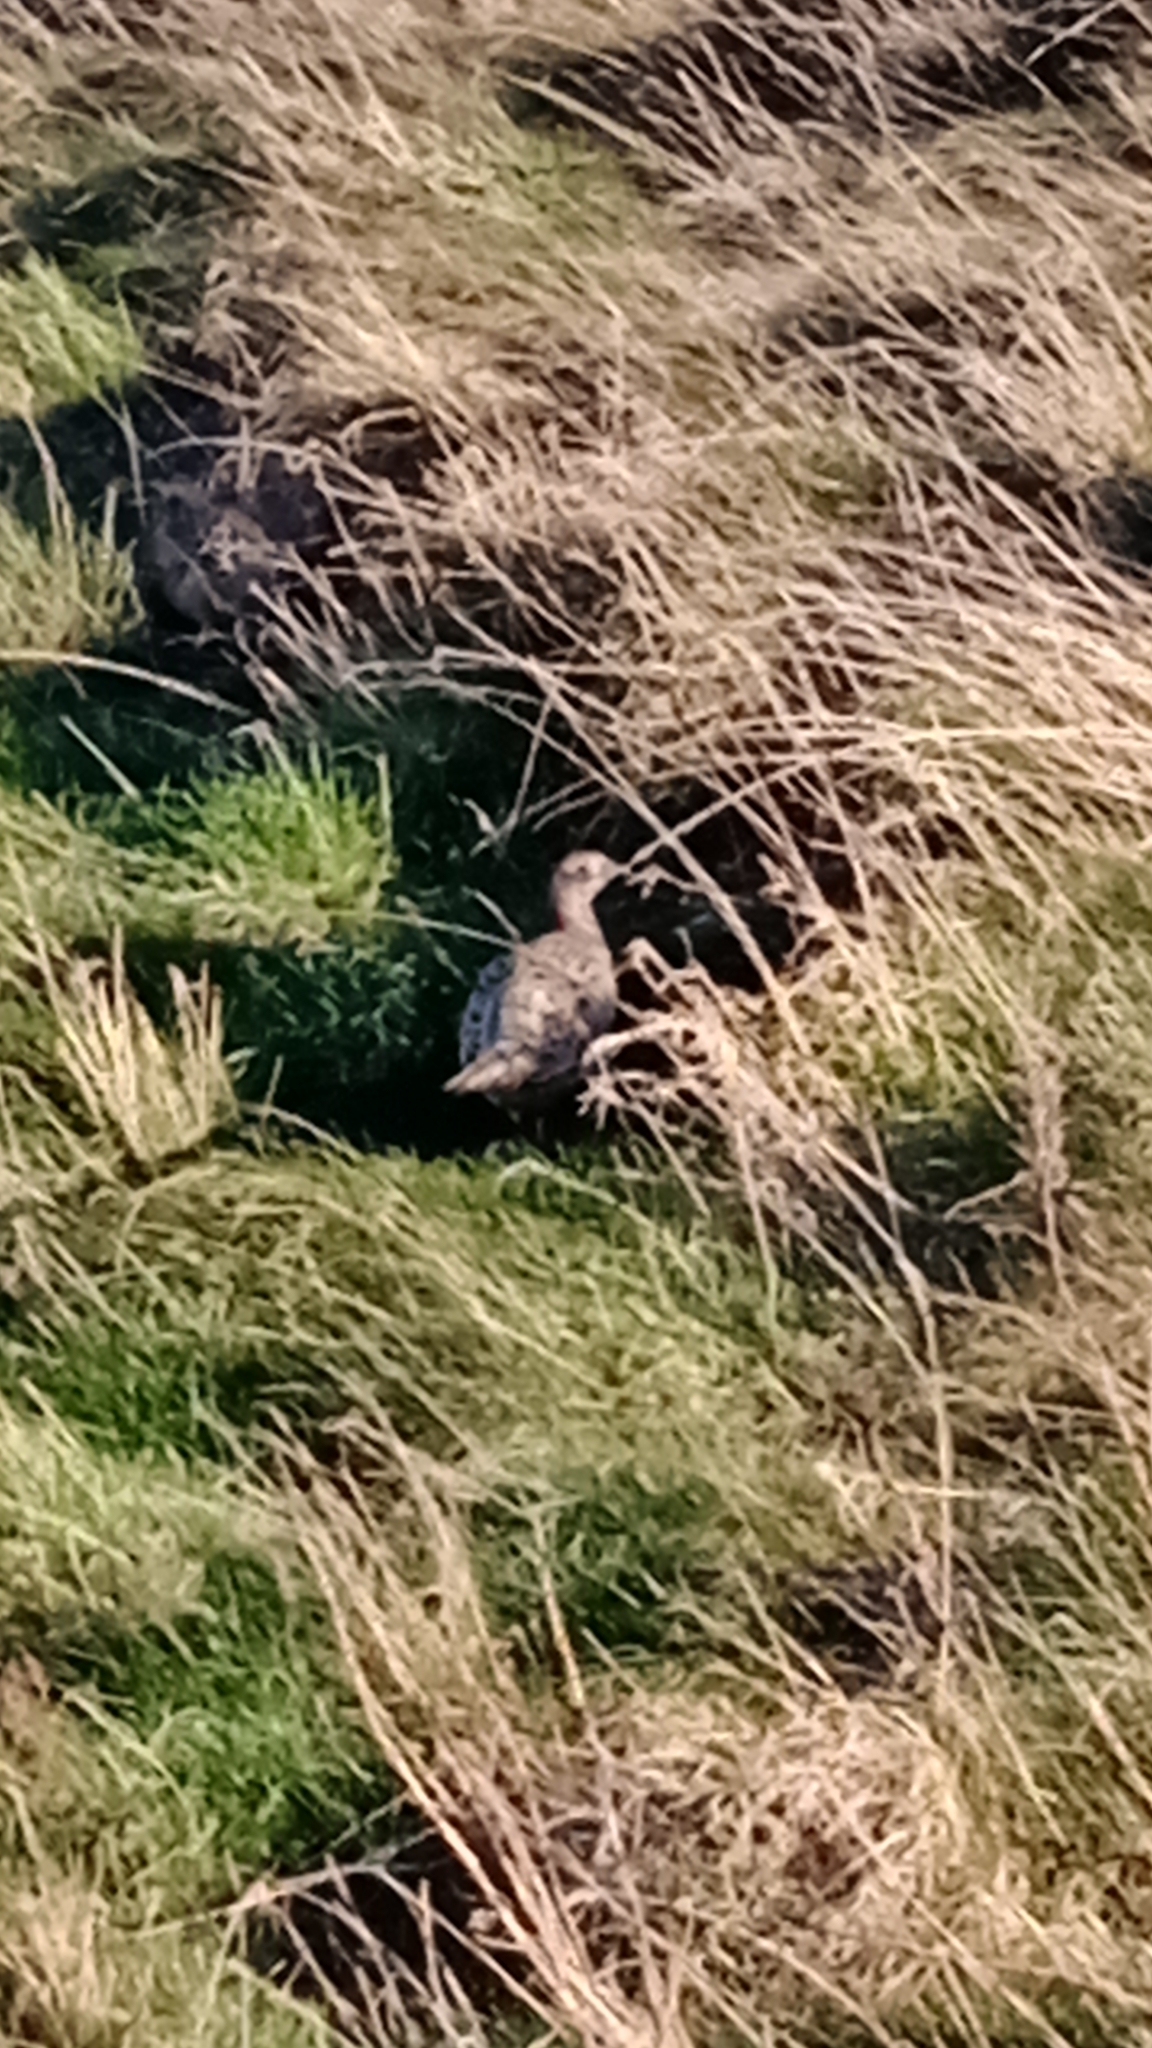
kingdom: Animalia
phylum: Chordata
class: Aves
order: Galliformes
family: Phasianidae
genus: Phasianus
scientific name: Phasianus colchicus
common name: Common pheasant
